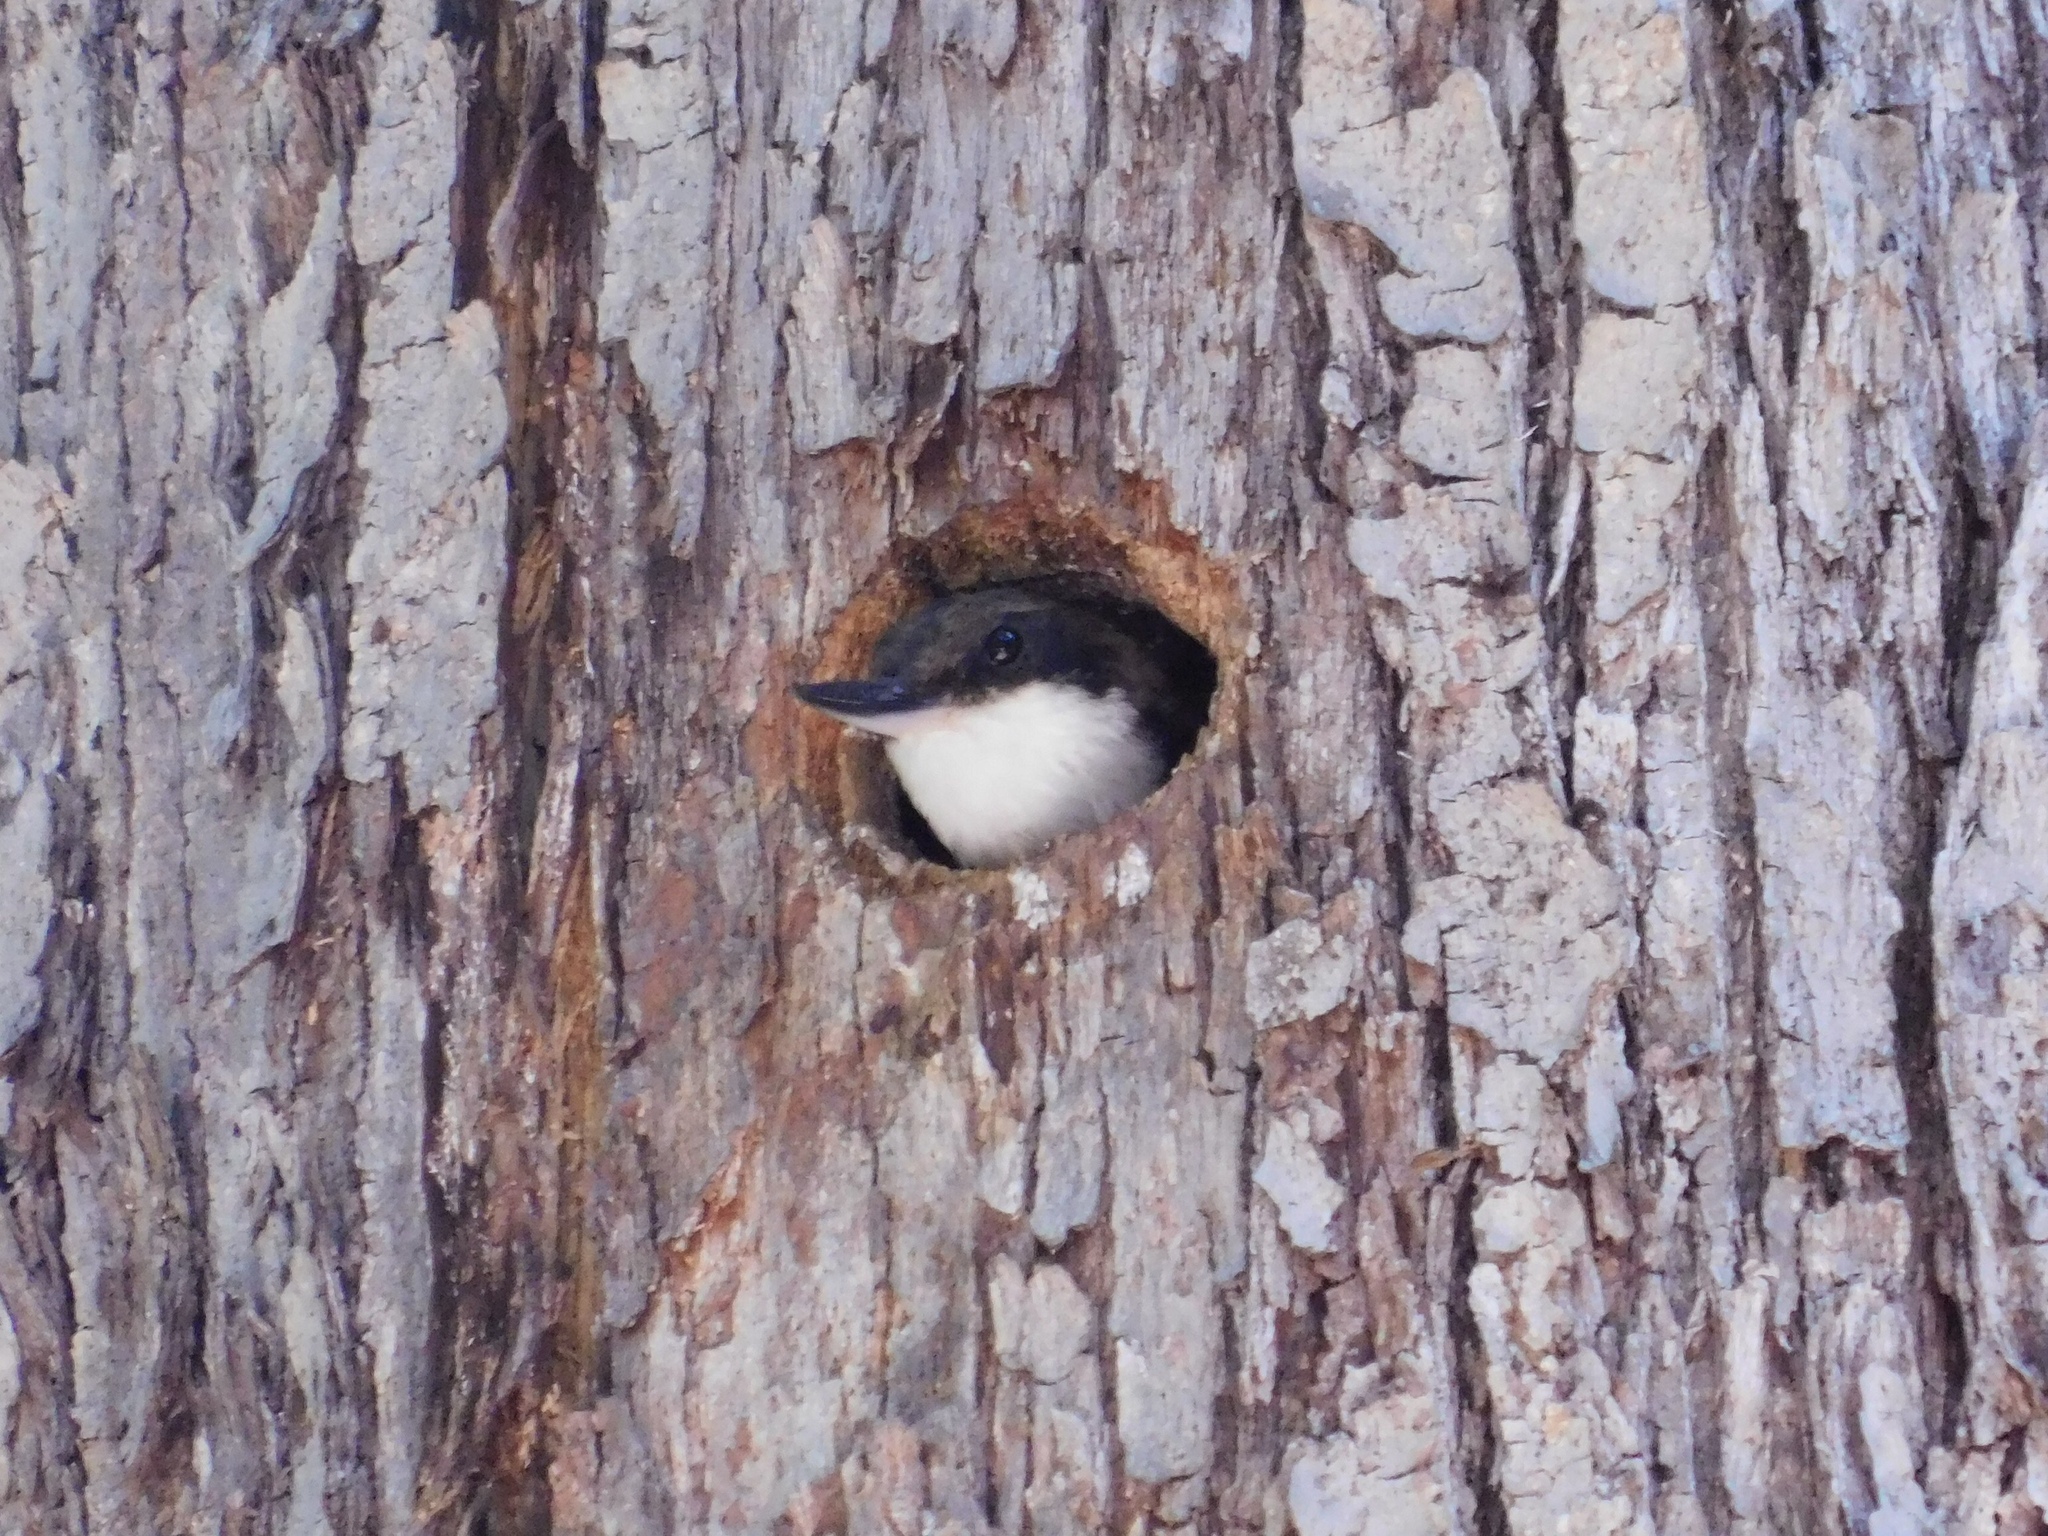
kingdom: Animalia
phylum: Chordata
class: Aves
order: Passeriformes
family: Furnariidae
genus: Pygarrhichas
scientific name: Pygarrhichas albogularis
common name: White-throated treerunner
